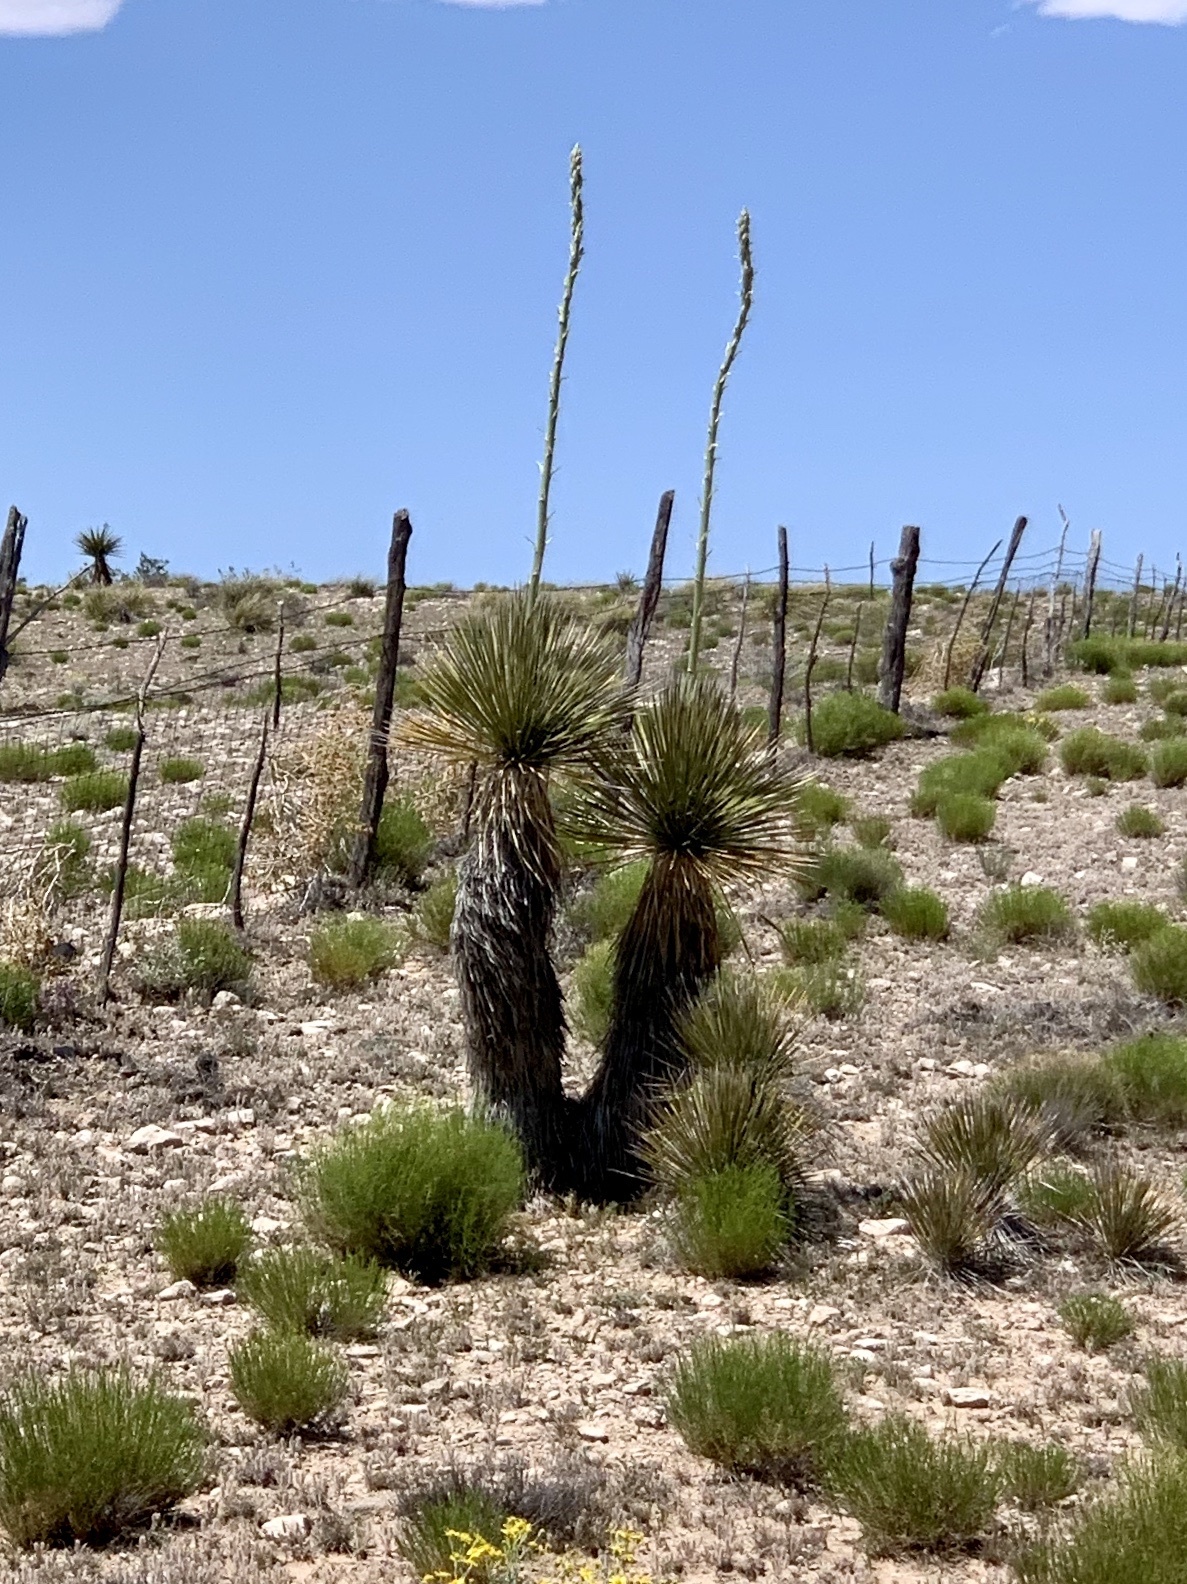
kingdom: Plantae
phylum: Tracheophyta
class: Liliopsida
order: Asparagales
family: Asparagaceae
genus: Yucca
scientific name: Yucca elata
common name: Palmella
